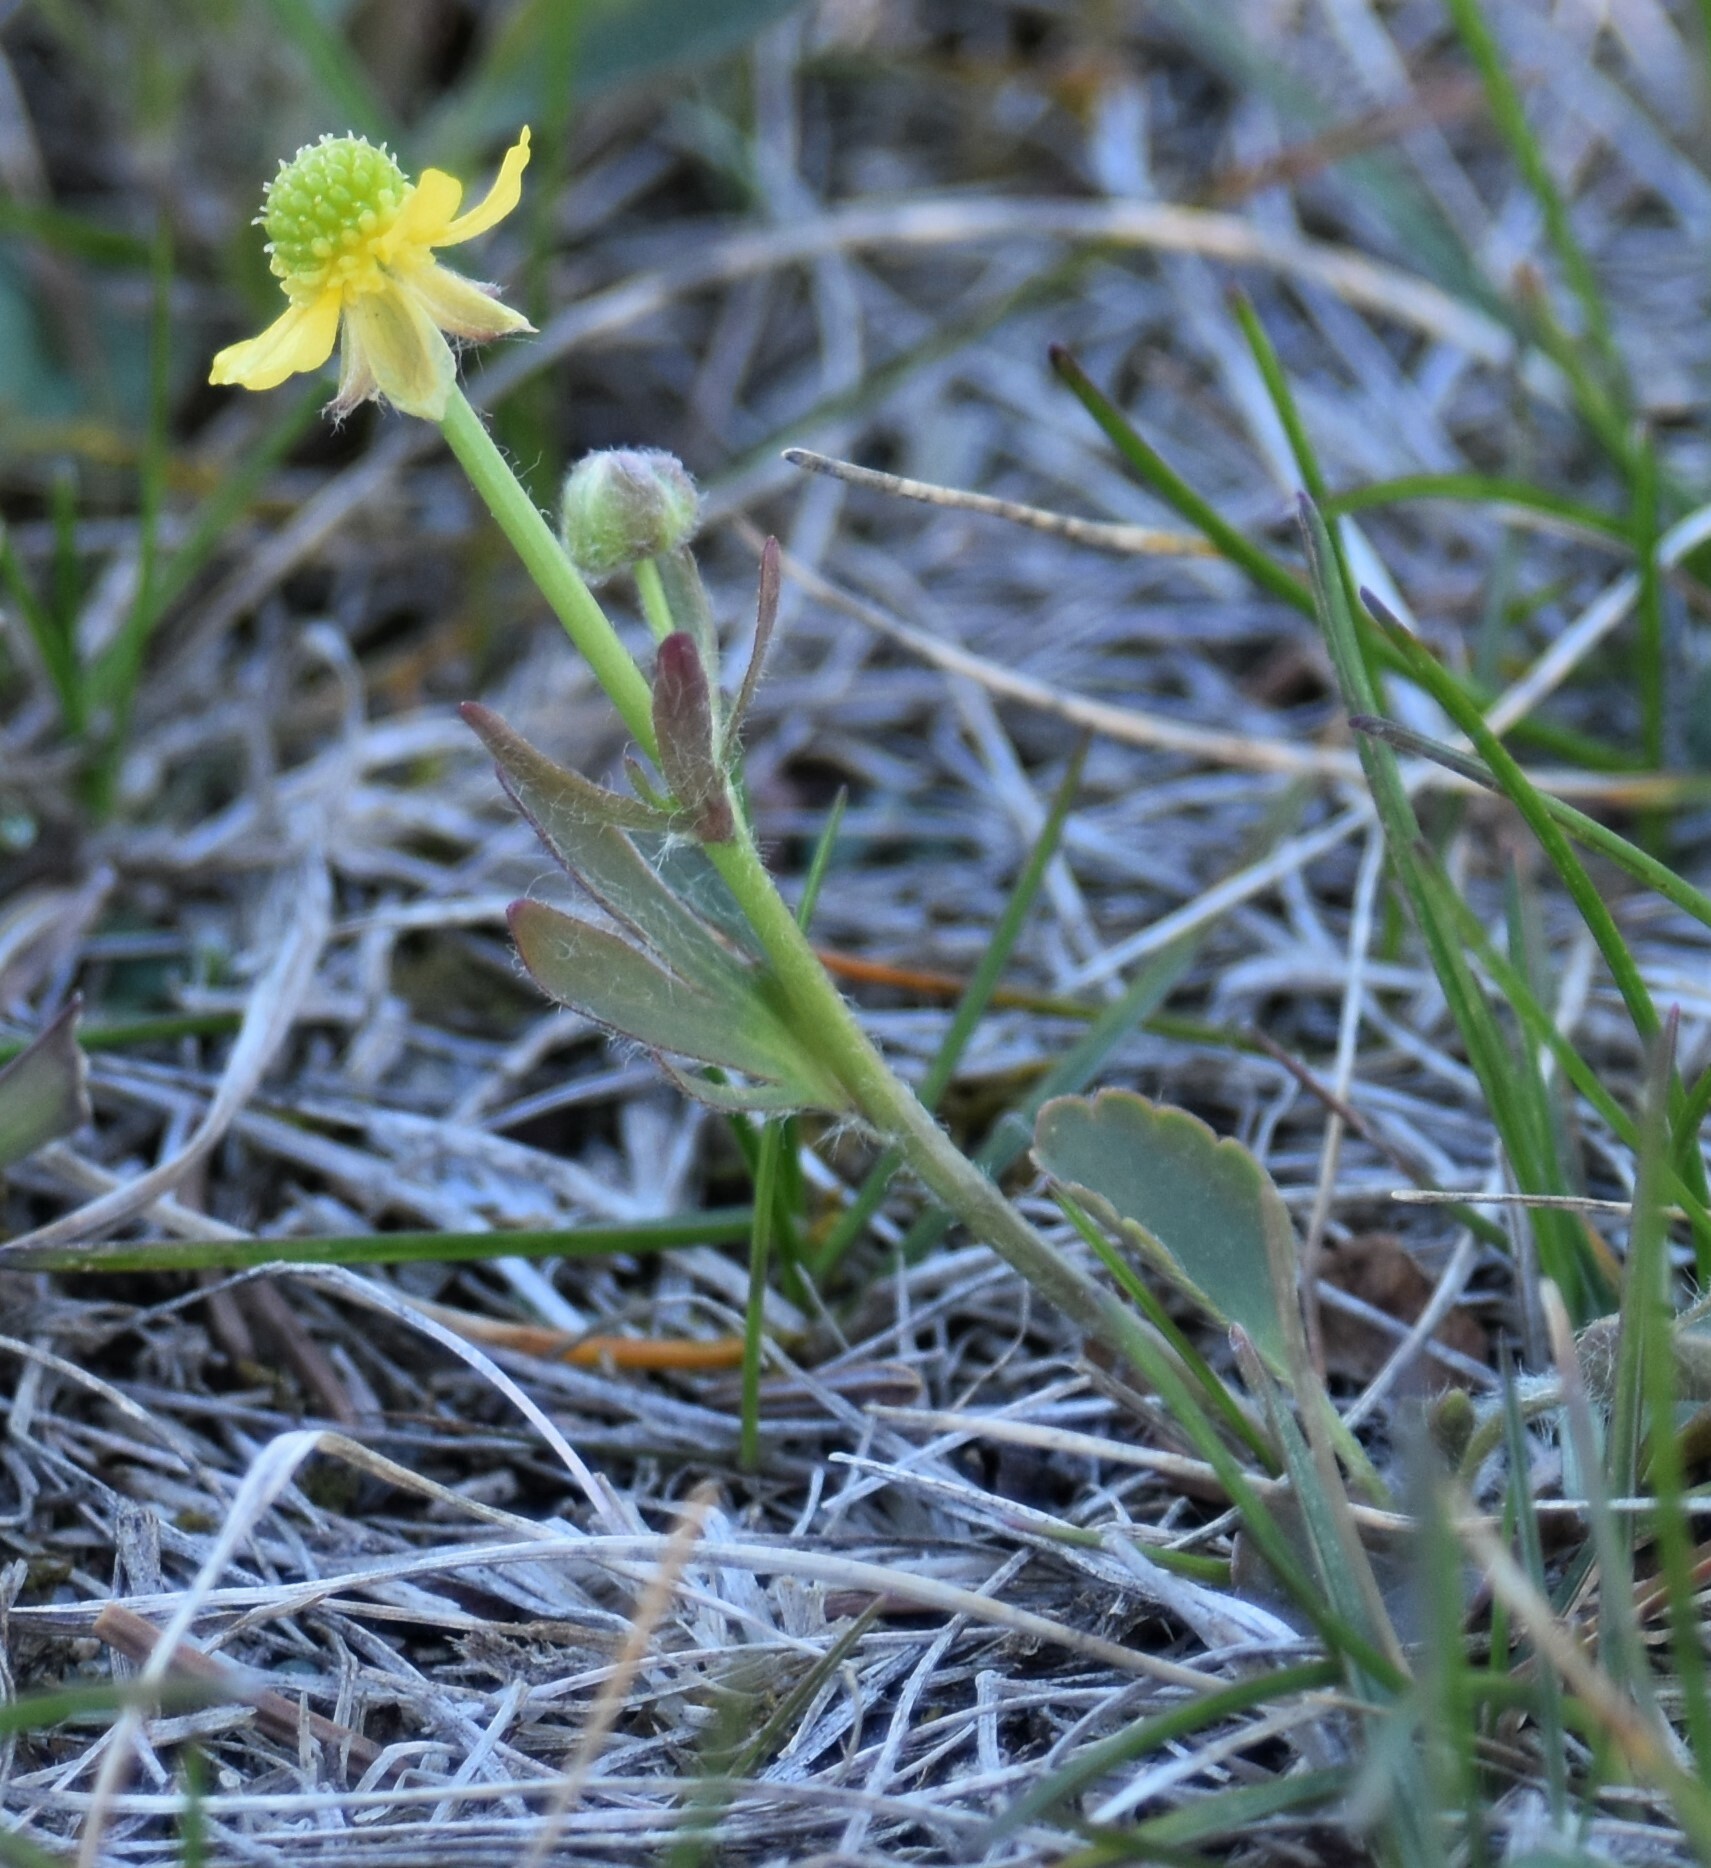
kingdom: Plantae
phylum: Tracheophyta
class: Magnoliopsida
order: Ranunculales
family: Ranunculaceae
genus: Ranunculus
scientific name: Ranunculus rhomboideus
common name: Prairie buttercup
